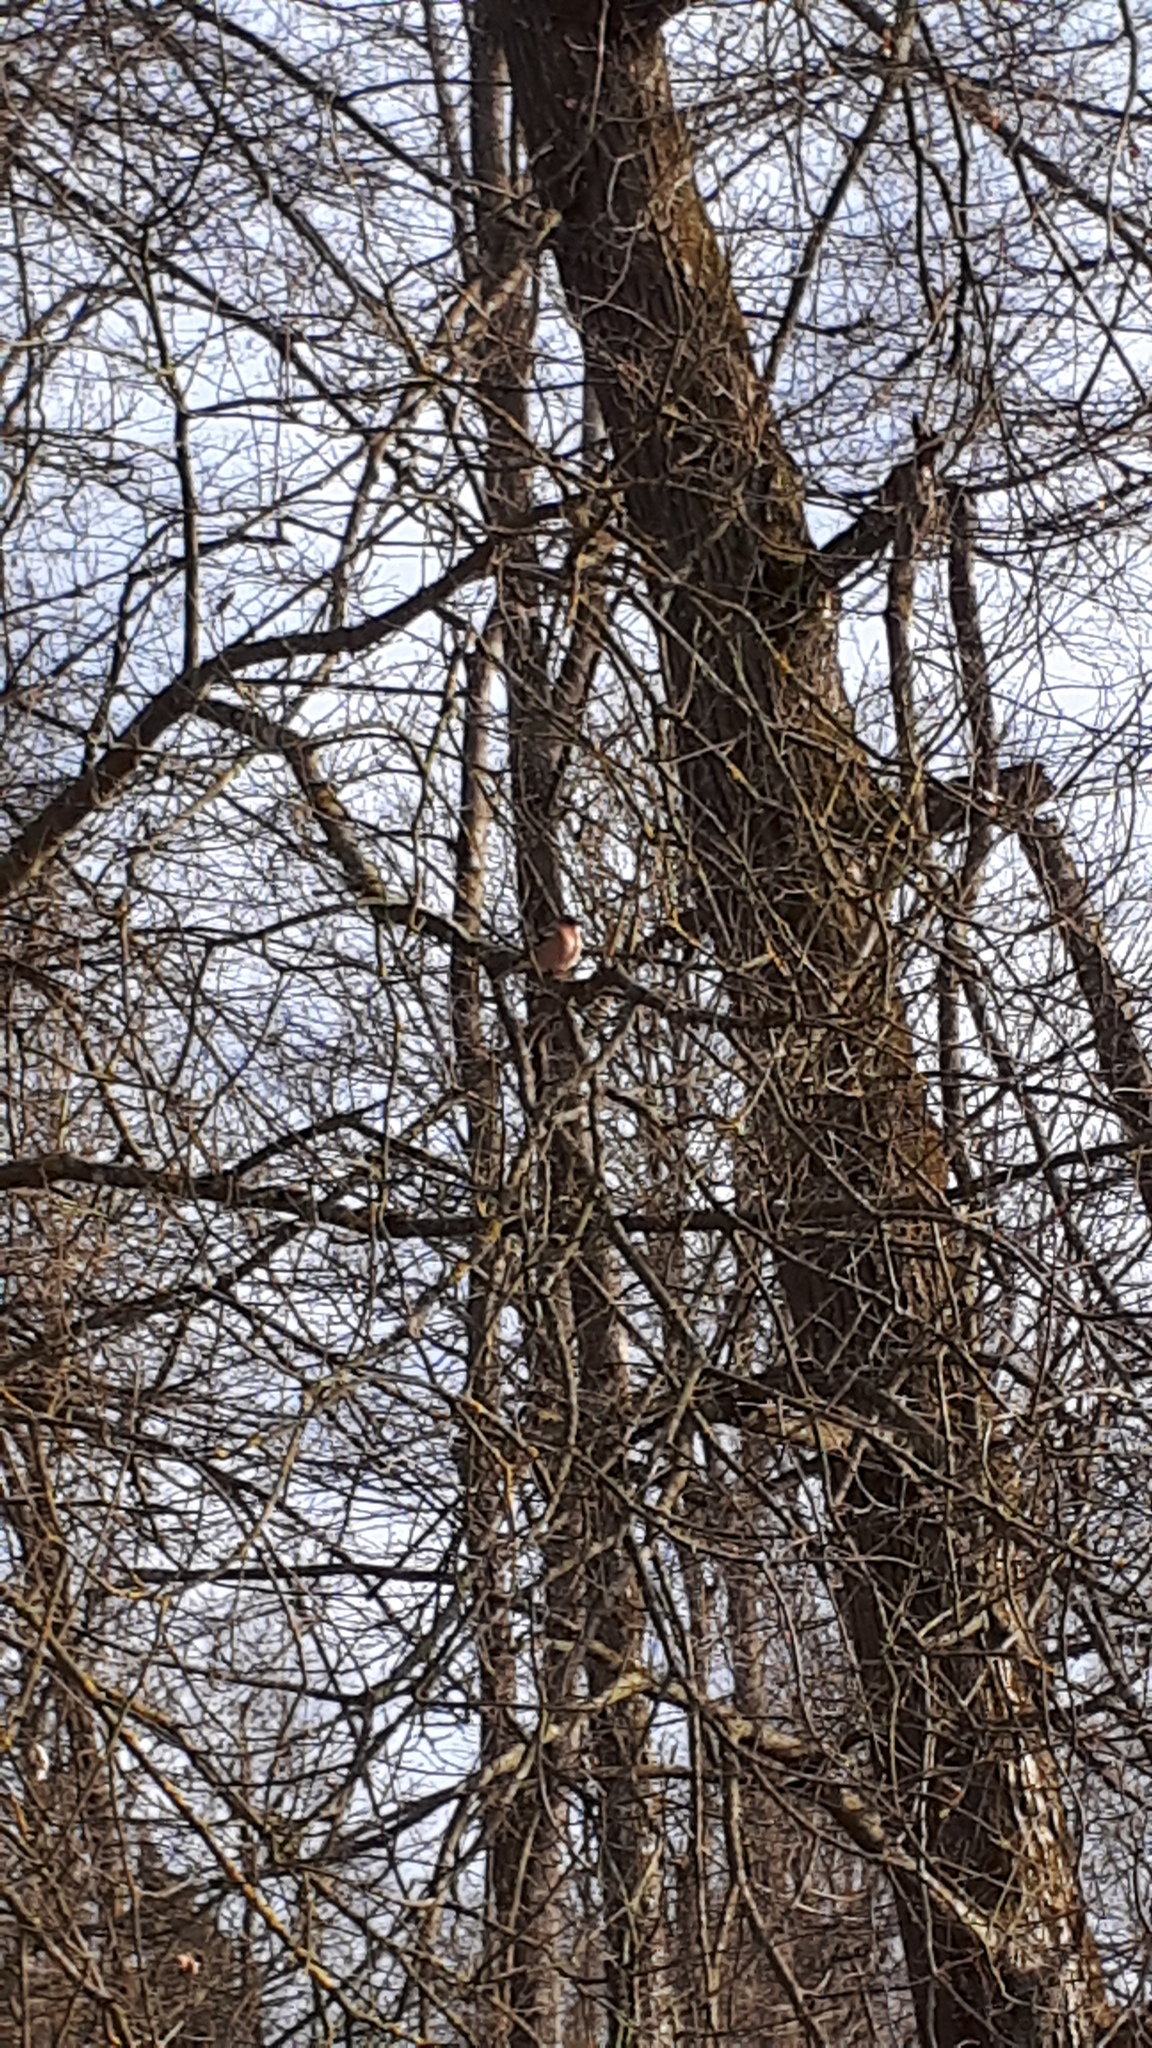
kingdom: Animalia
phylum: Chordata
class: Aves
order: Passeriformes
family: Fringillidae
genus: Fringilla
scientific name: Fringilla coelebs
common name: Common chaffinch
